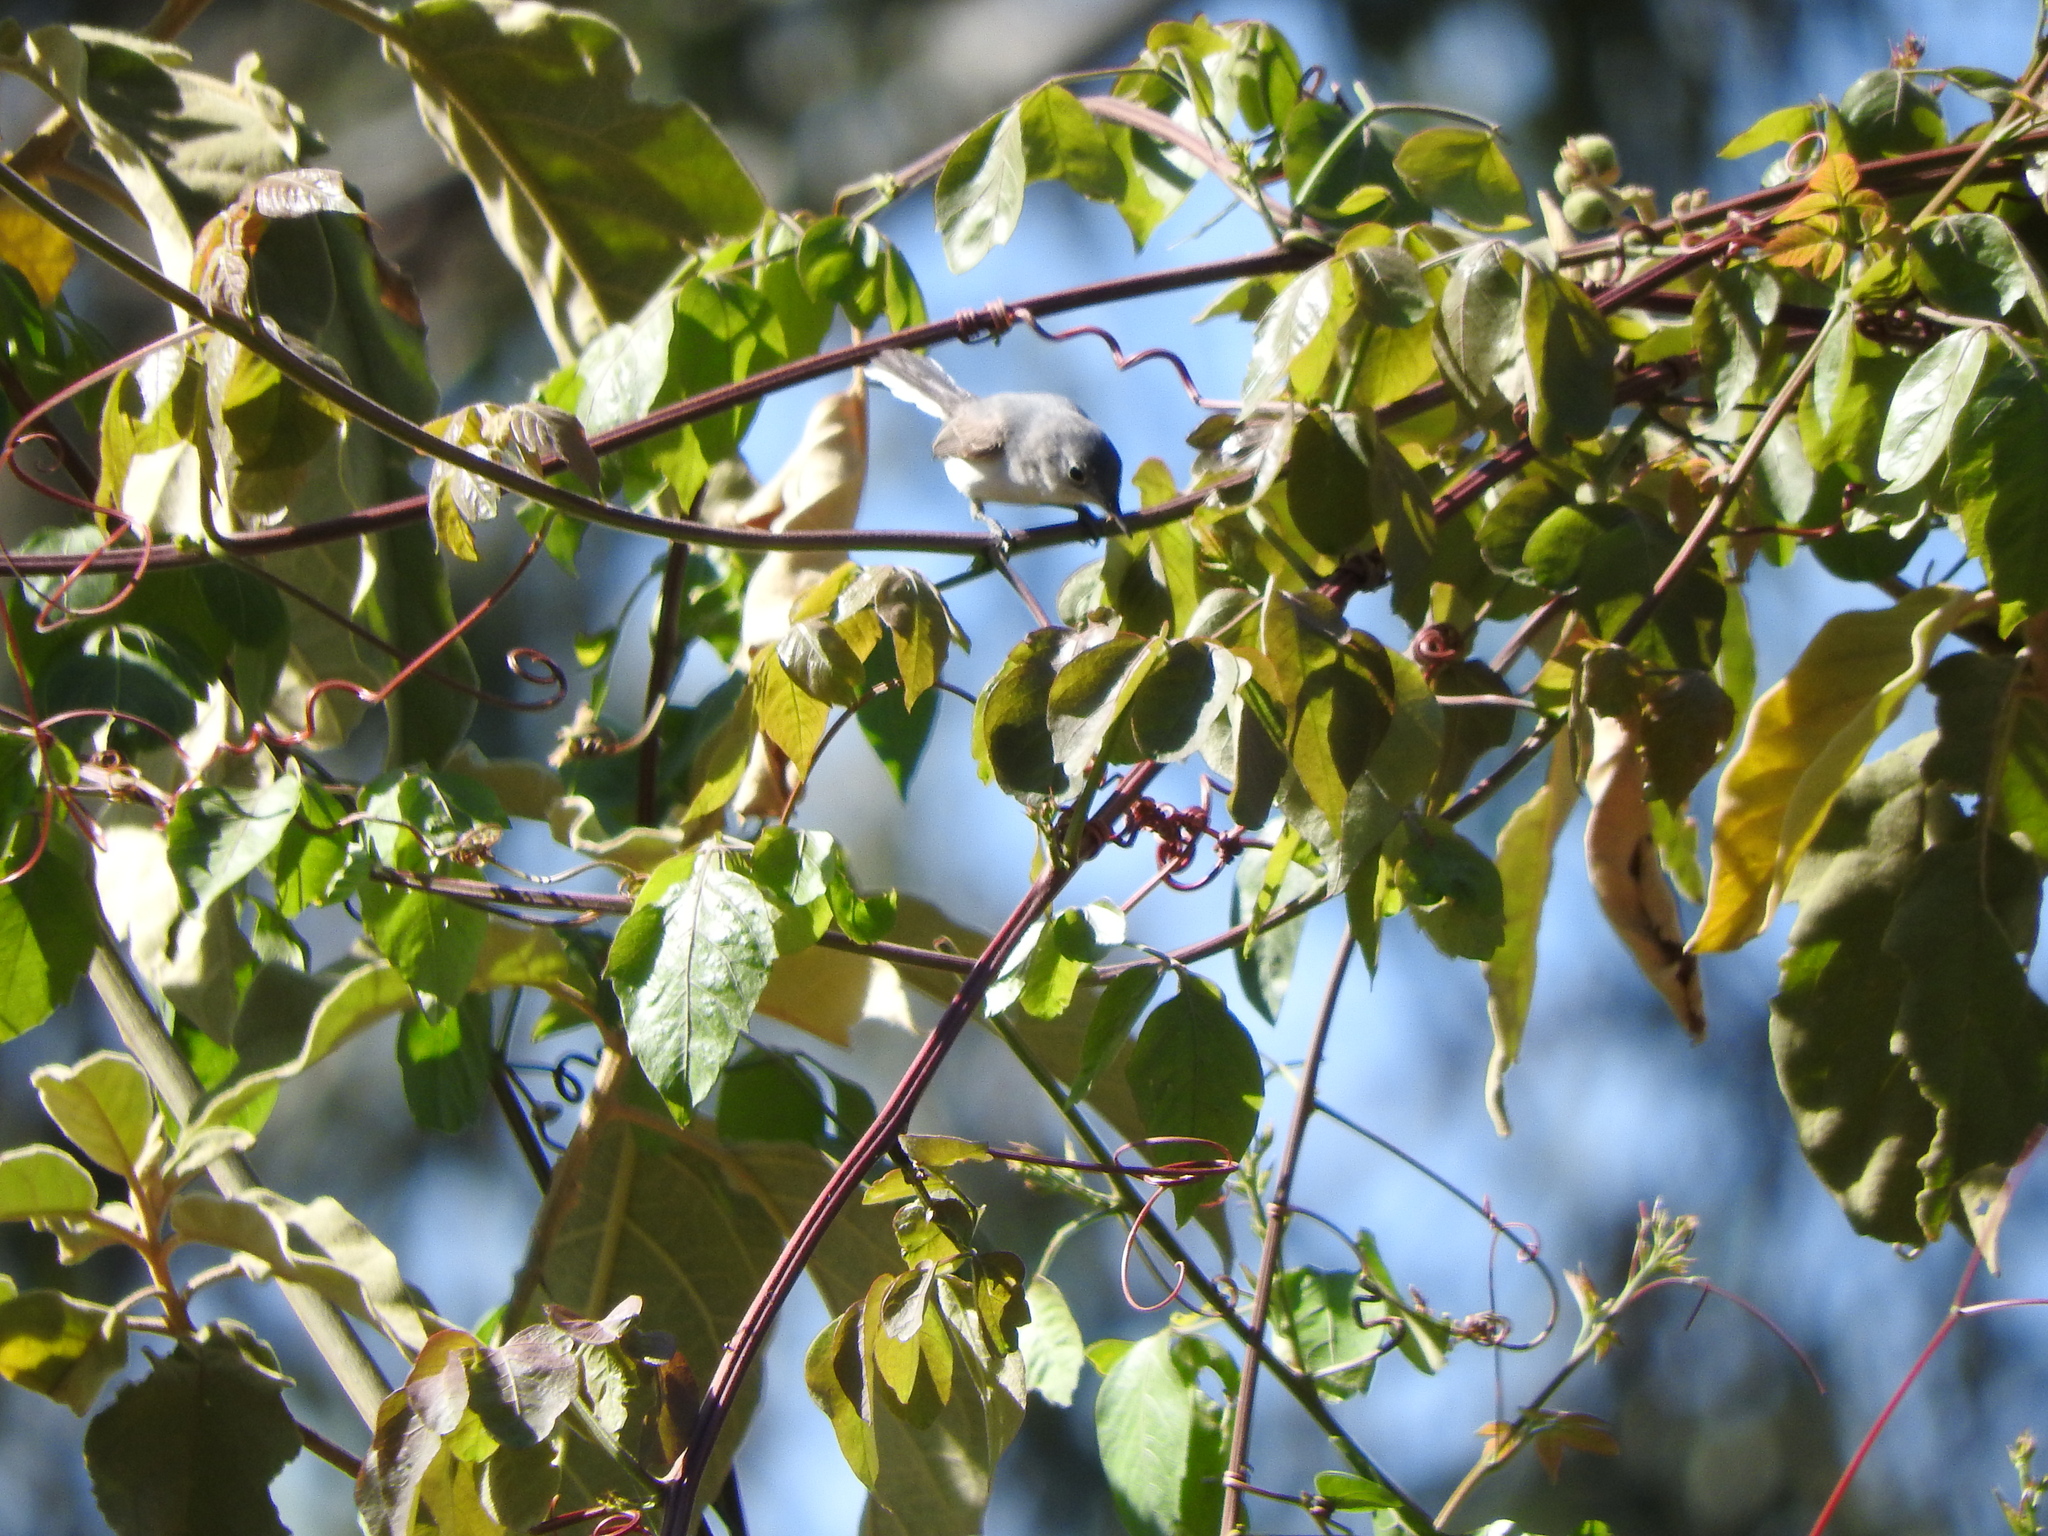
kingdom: Animalia
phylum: Chordata
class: Aves
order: Passeriformes
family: Polioptilidae
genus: Polioptila
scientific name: Polioptila caerulea
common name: Blue-gray gnatcatcher
